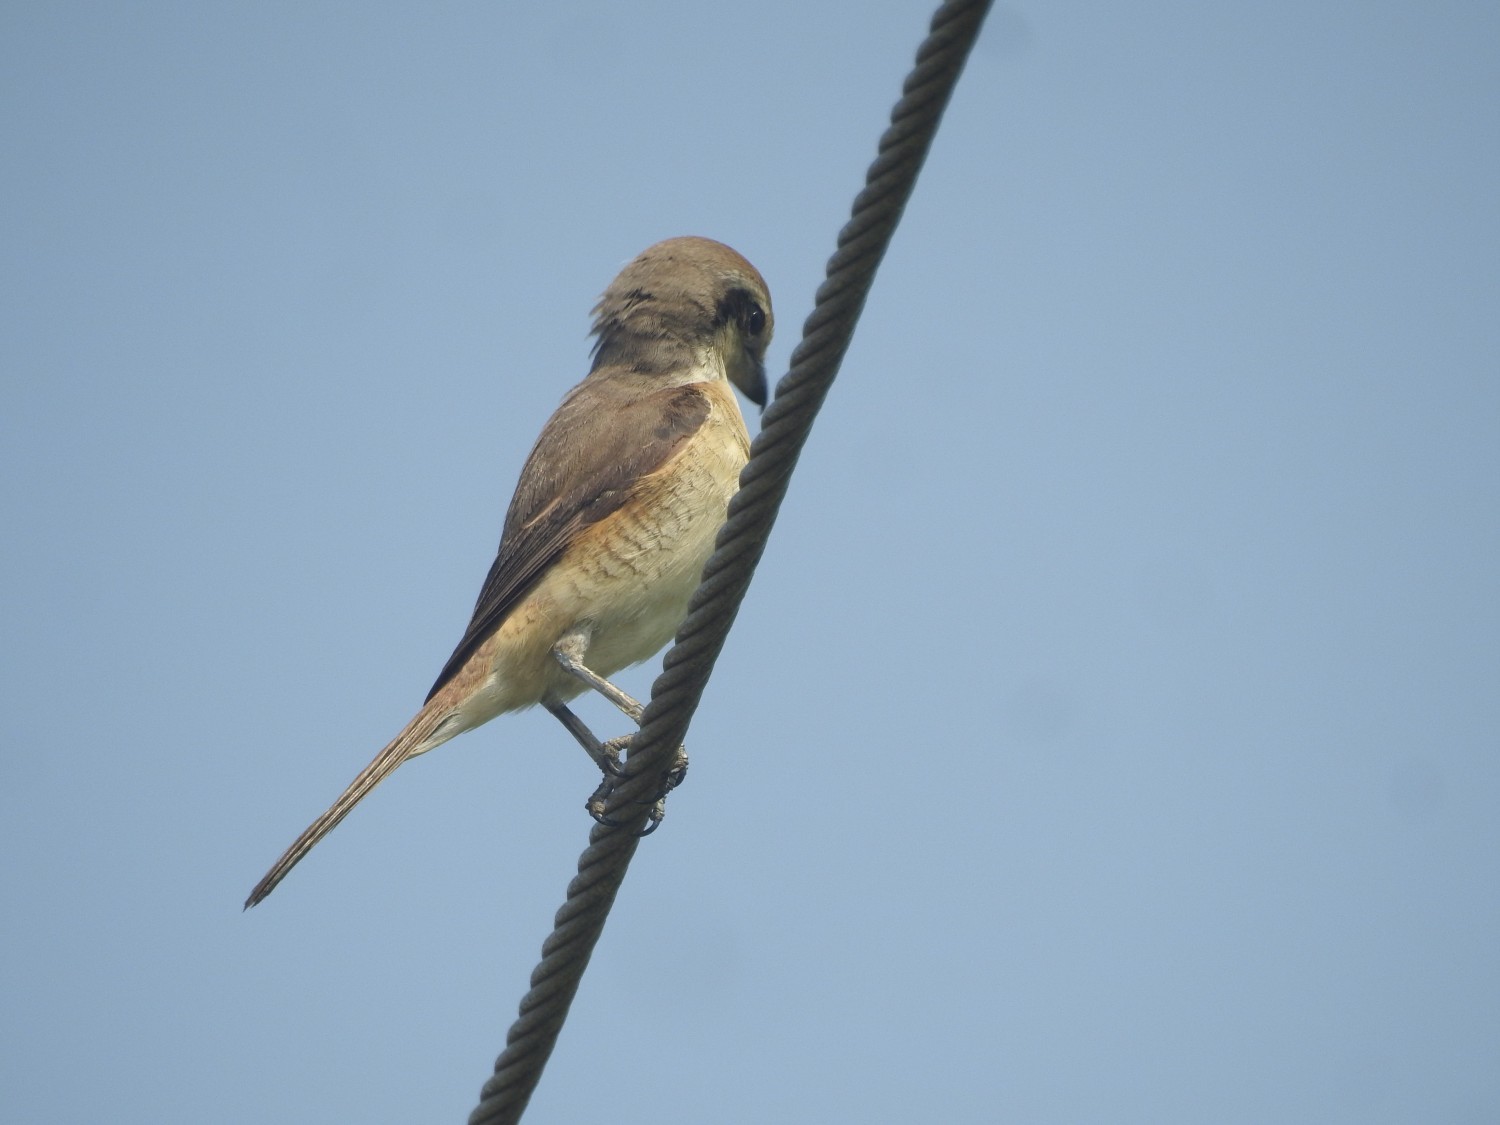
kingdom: Animalia
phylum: Chordata
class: Aves
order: Passeriformes
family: Laniidae
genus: Lanius
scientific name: Lanius cristatus
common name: Brown shrike
